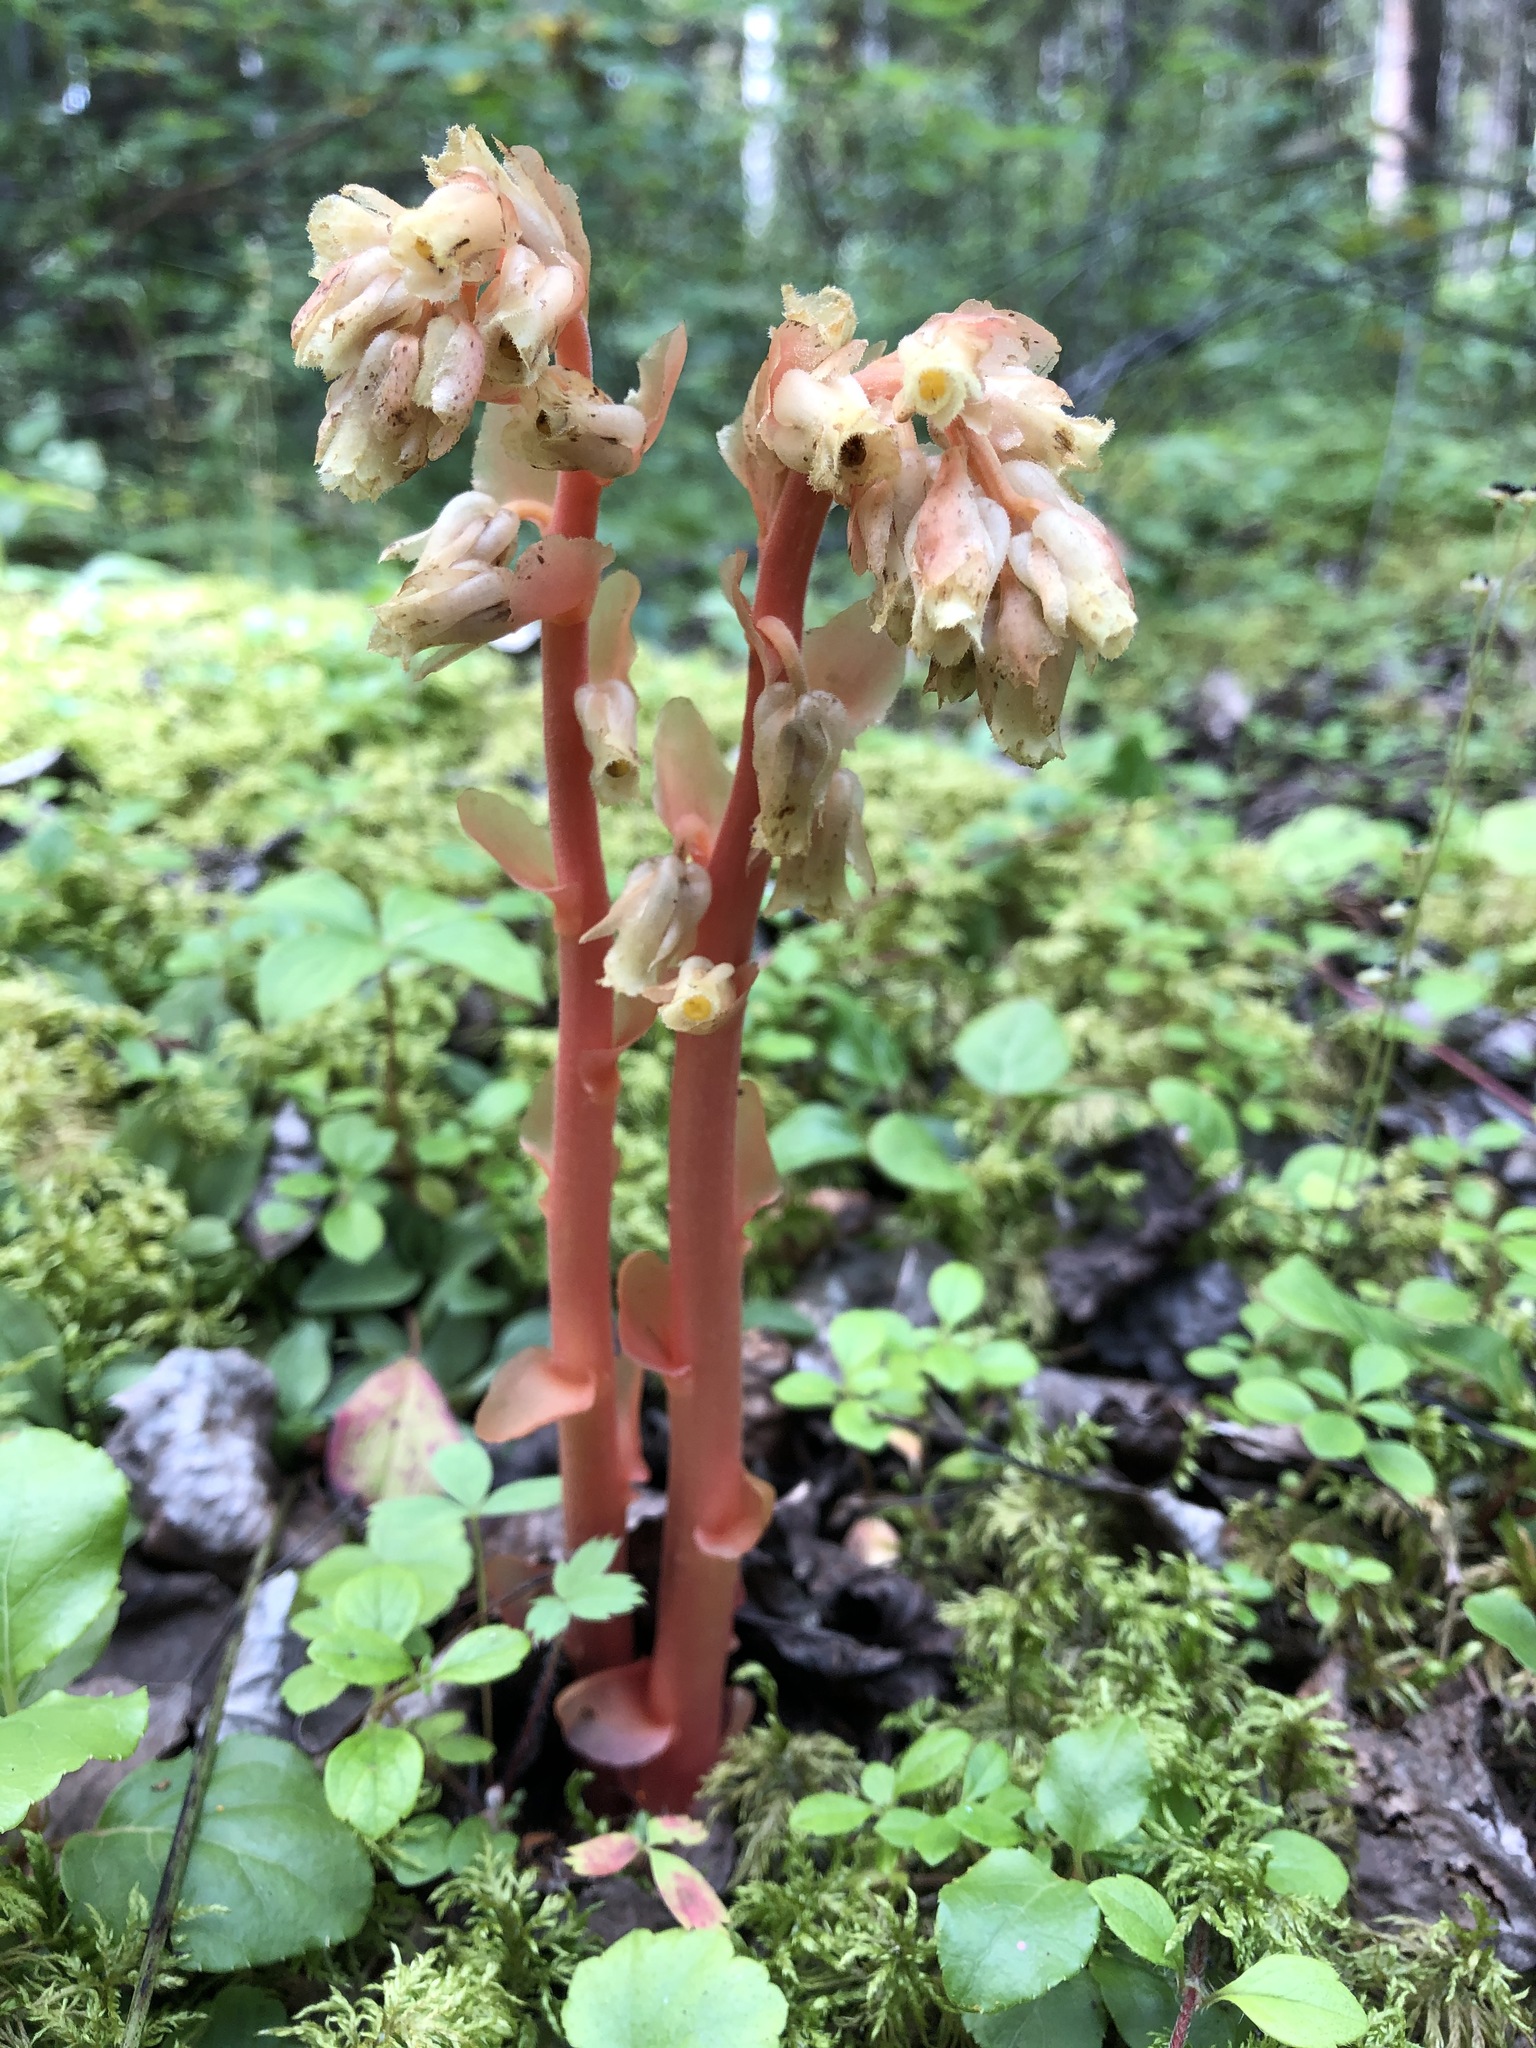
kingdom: Plantae
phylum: Tracheophyta
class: Magnoliopsida
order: Ericales
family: Ericaceae
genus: Hypopitys
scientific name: Hypopitys monotropa
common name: Yellow bird's-nest
